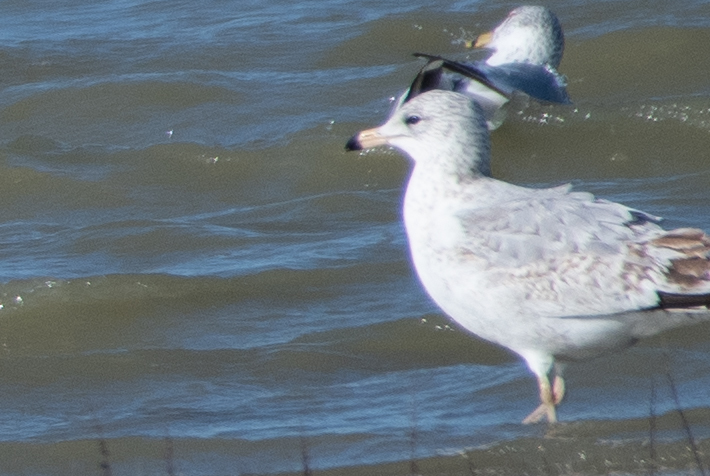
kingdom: Animalia
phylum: Chordata
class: Aves
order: Charadriiformes
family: Laridae
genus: Larus
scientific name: Larus delawarensis
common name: Ring-billed gull
